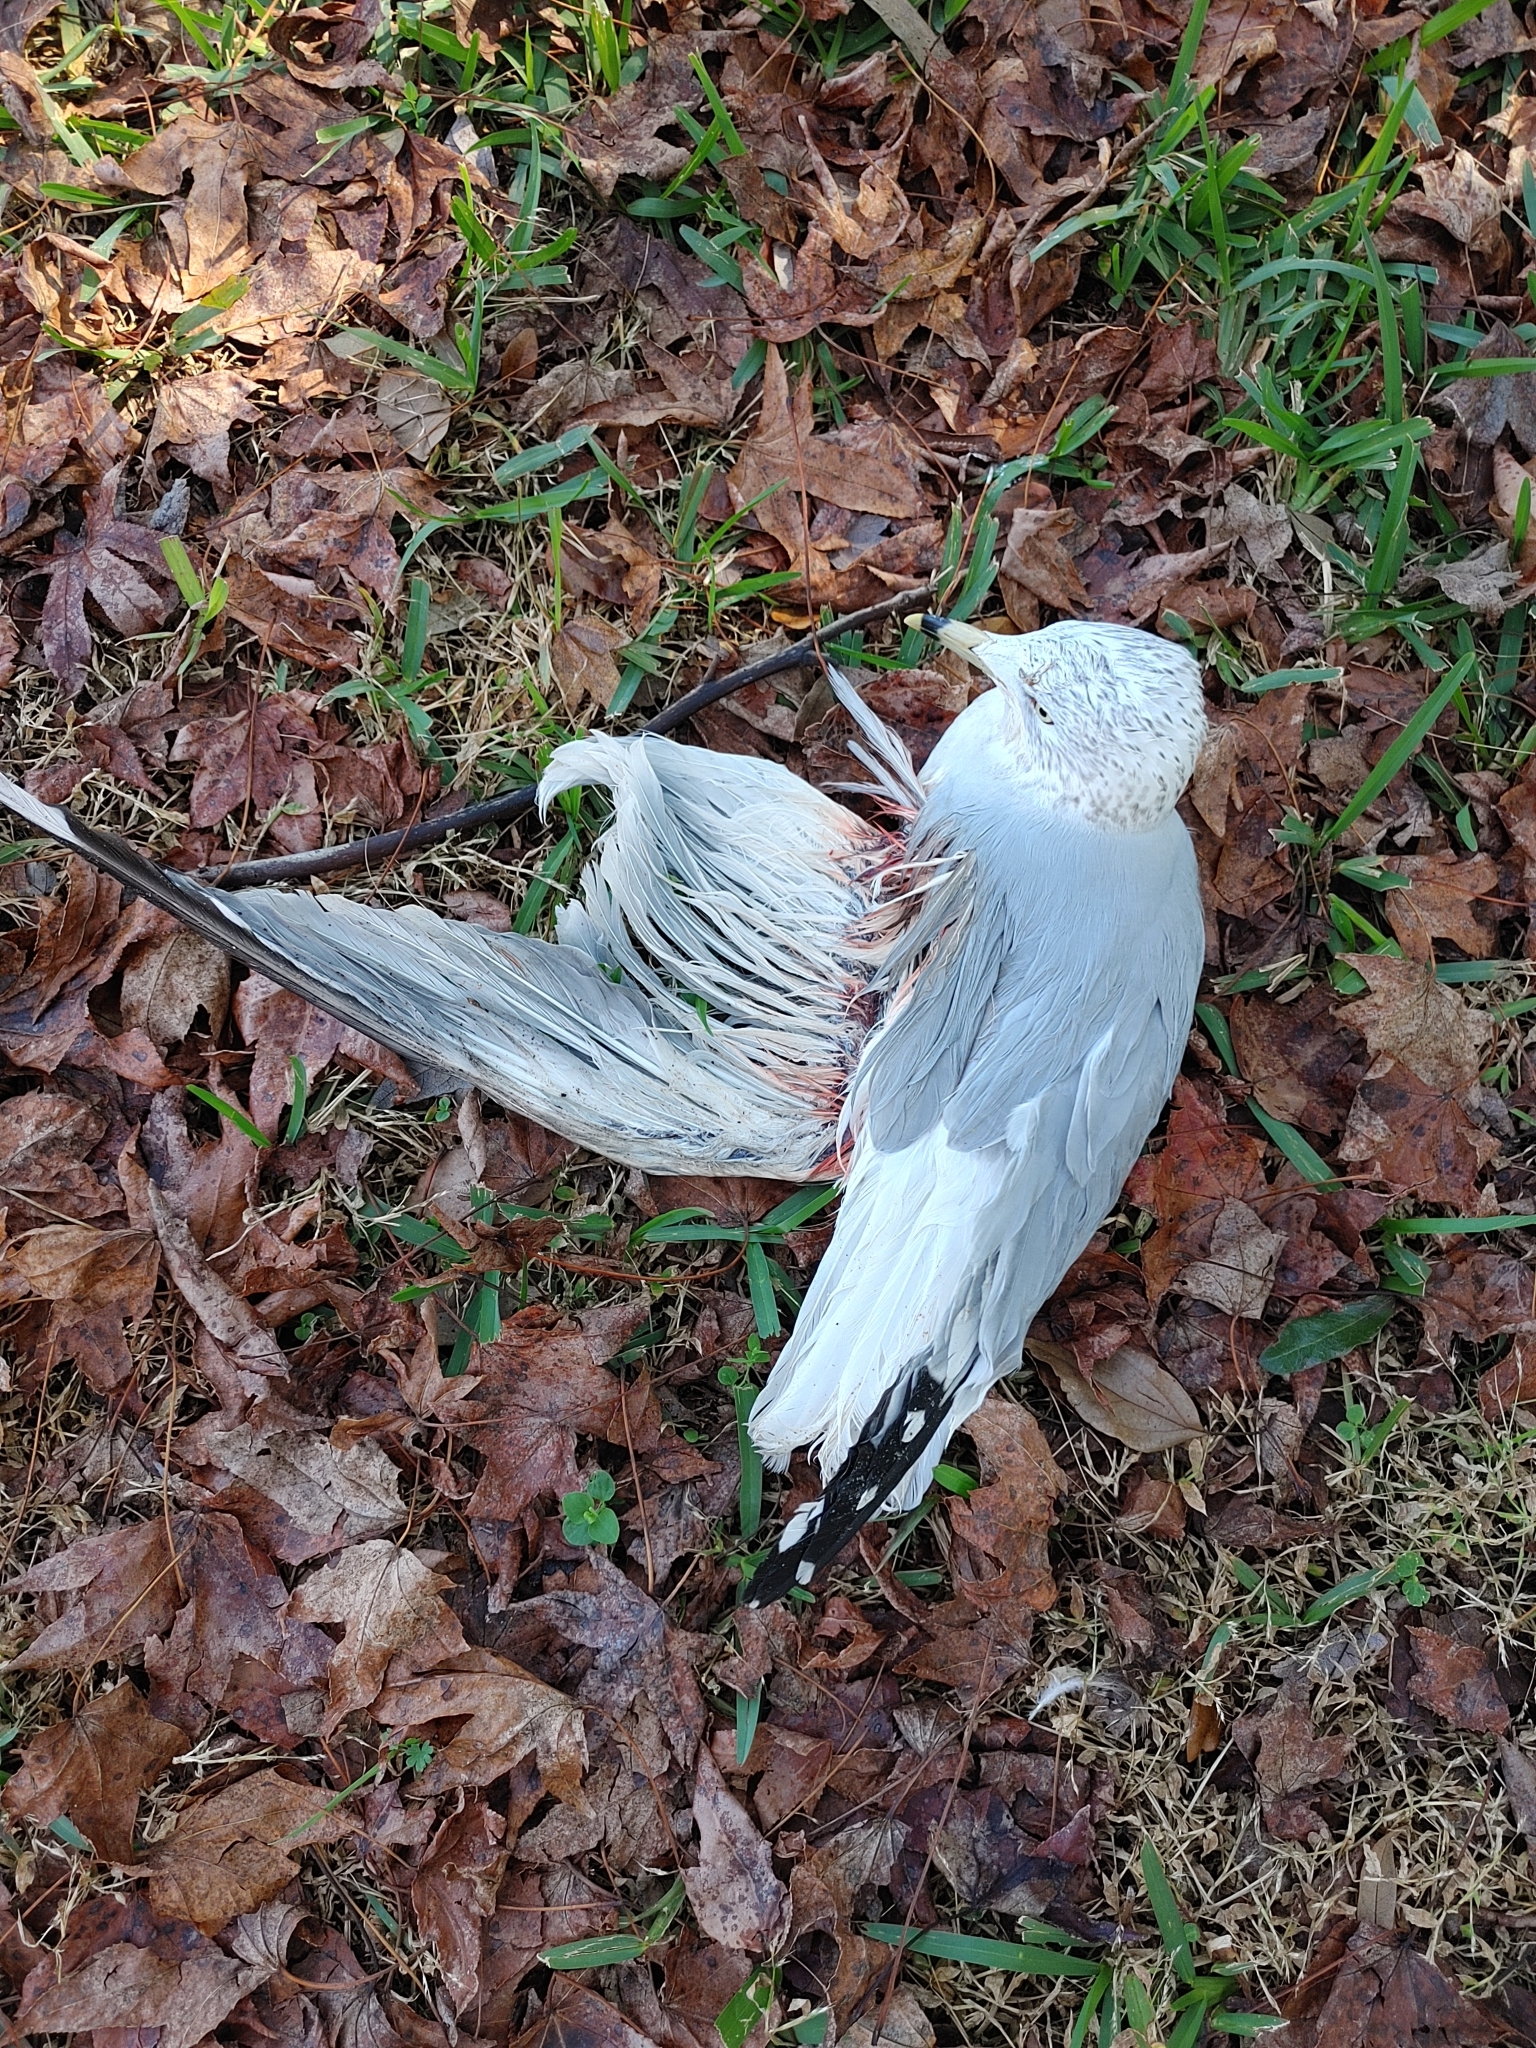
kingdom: Animalia
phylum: Chordata
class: Aves
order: Charadriiformes
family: Laridae
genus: Larus
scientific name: Larus delawarensis
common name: Ring-billed gull
